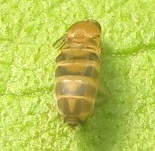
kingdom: Animalia
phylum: Arthropoda
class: Insecta
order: Diptera
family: Phoridae
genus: Megaselia
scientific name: Megaselia scalaris
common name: Scuttle fly
